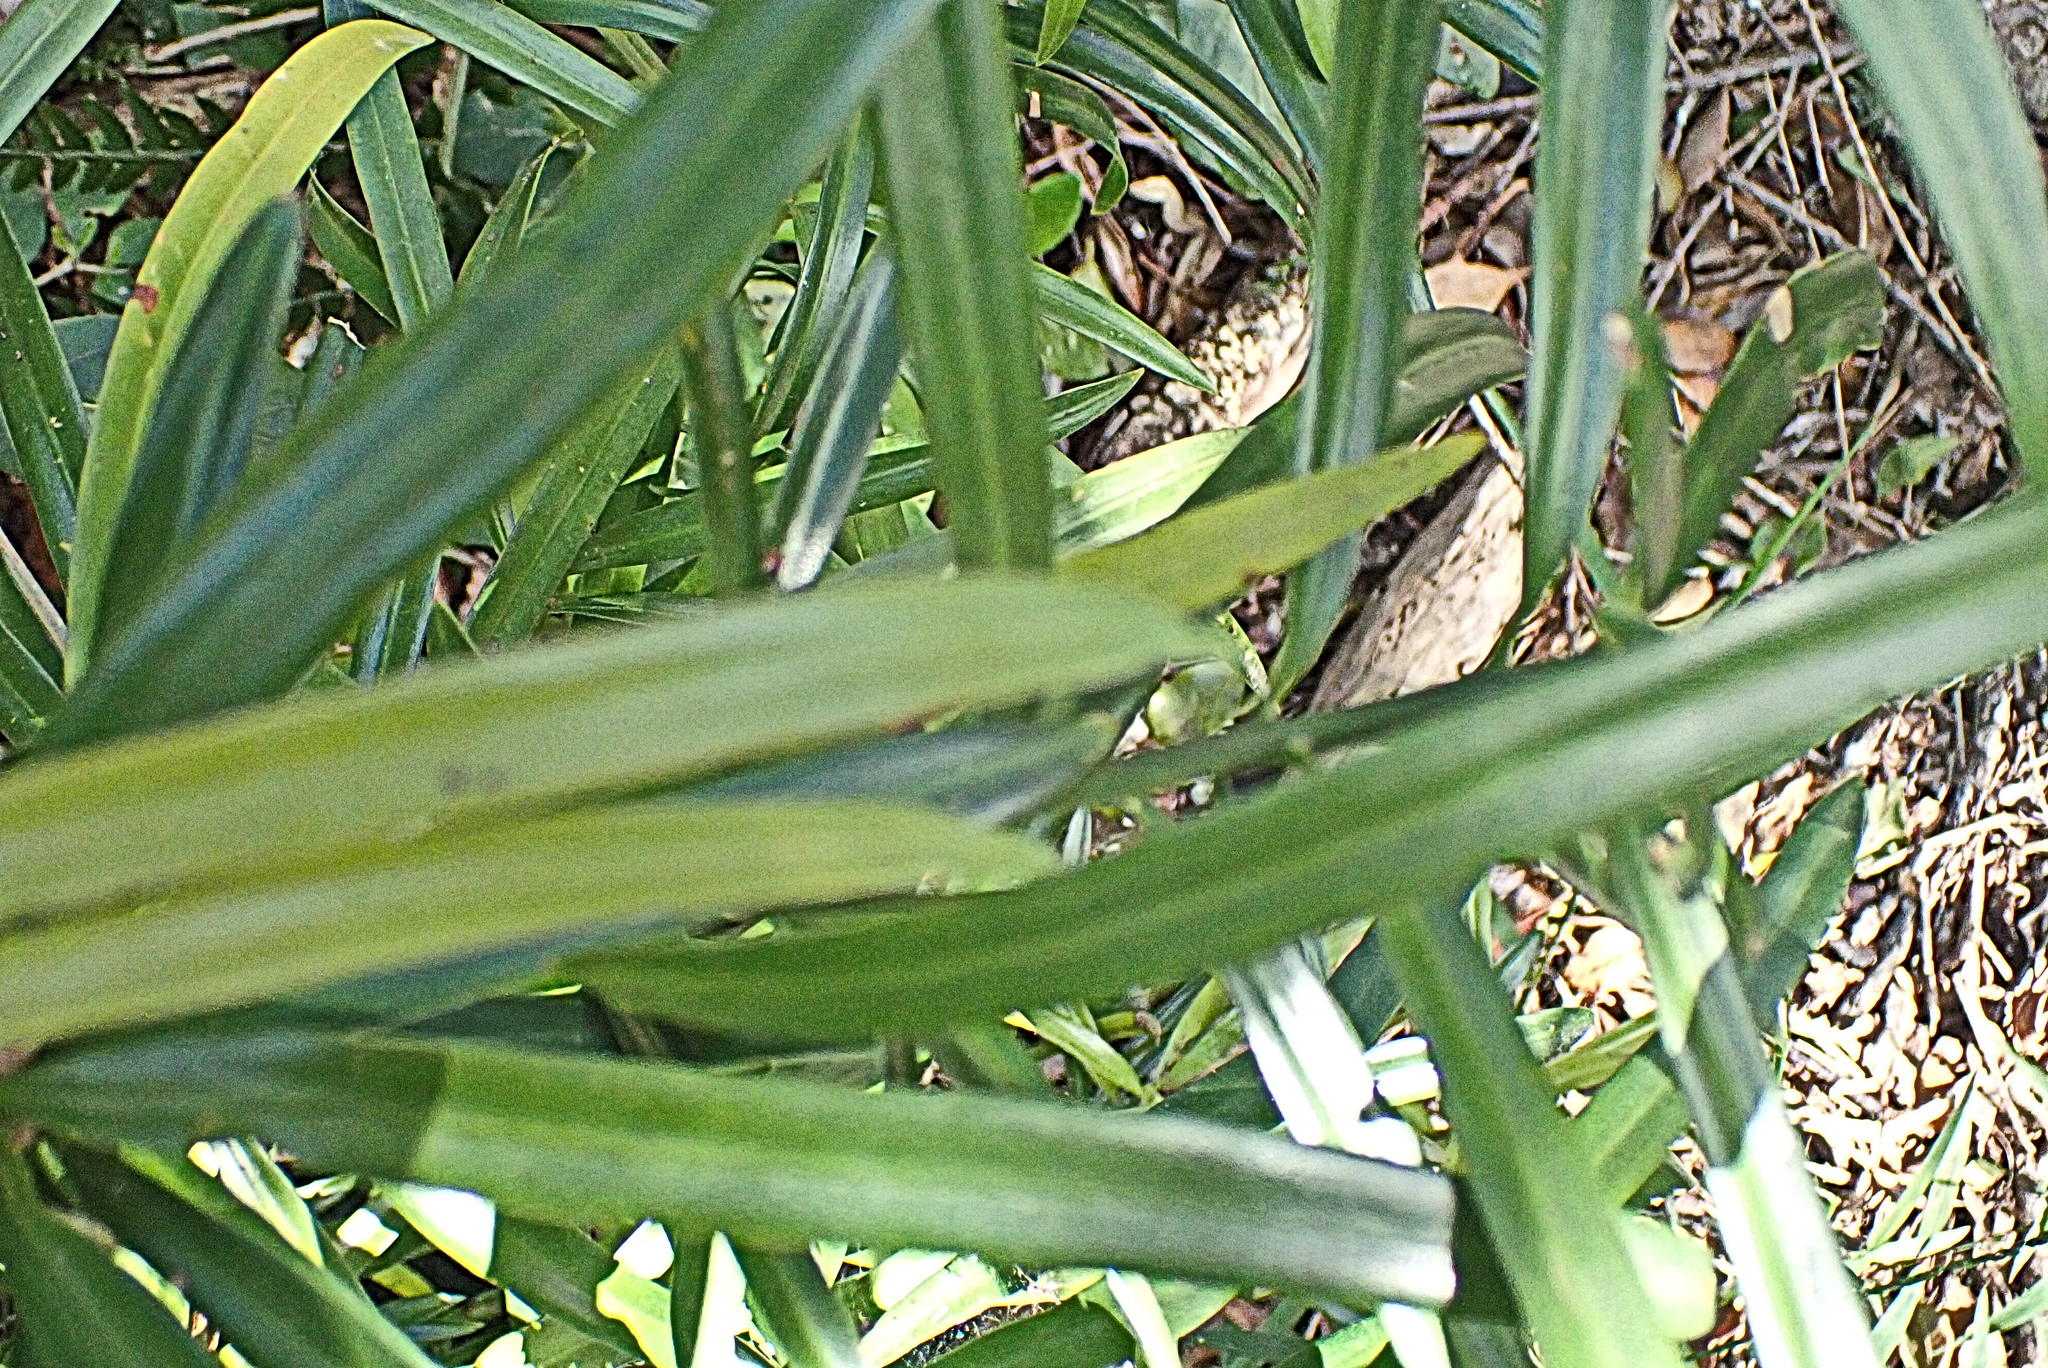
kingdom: Plantae
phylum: Tracheophyta
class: Pinopsida
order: Pinales
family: Podocarpaceae
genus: Podocarpus
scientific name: Podocarpus latifolius
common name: True yellowwood
